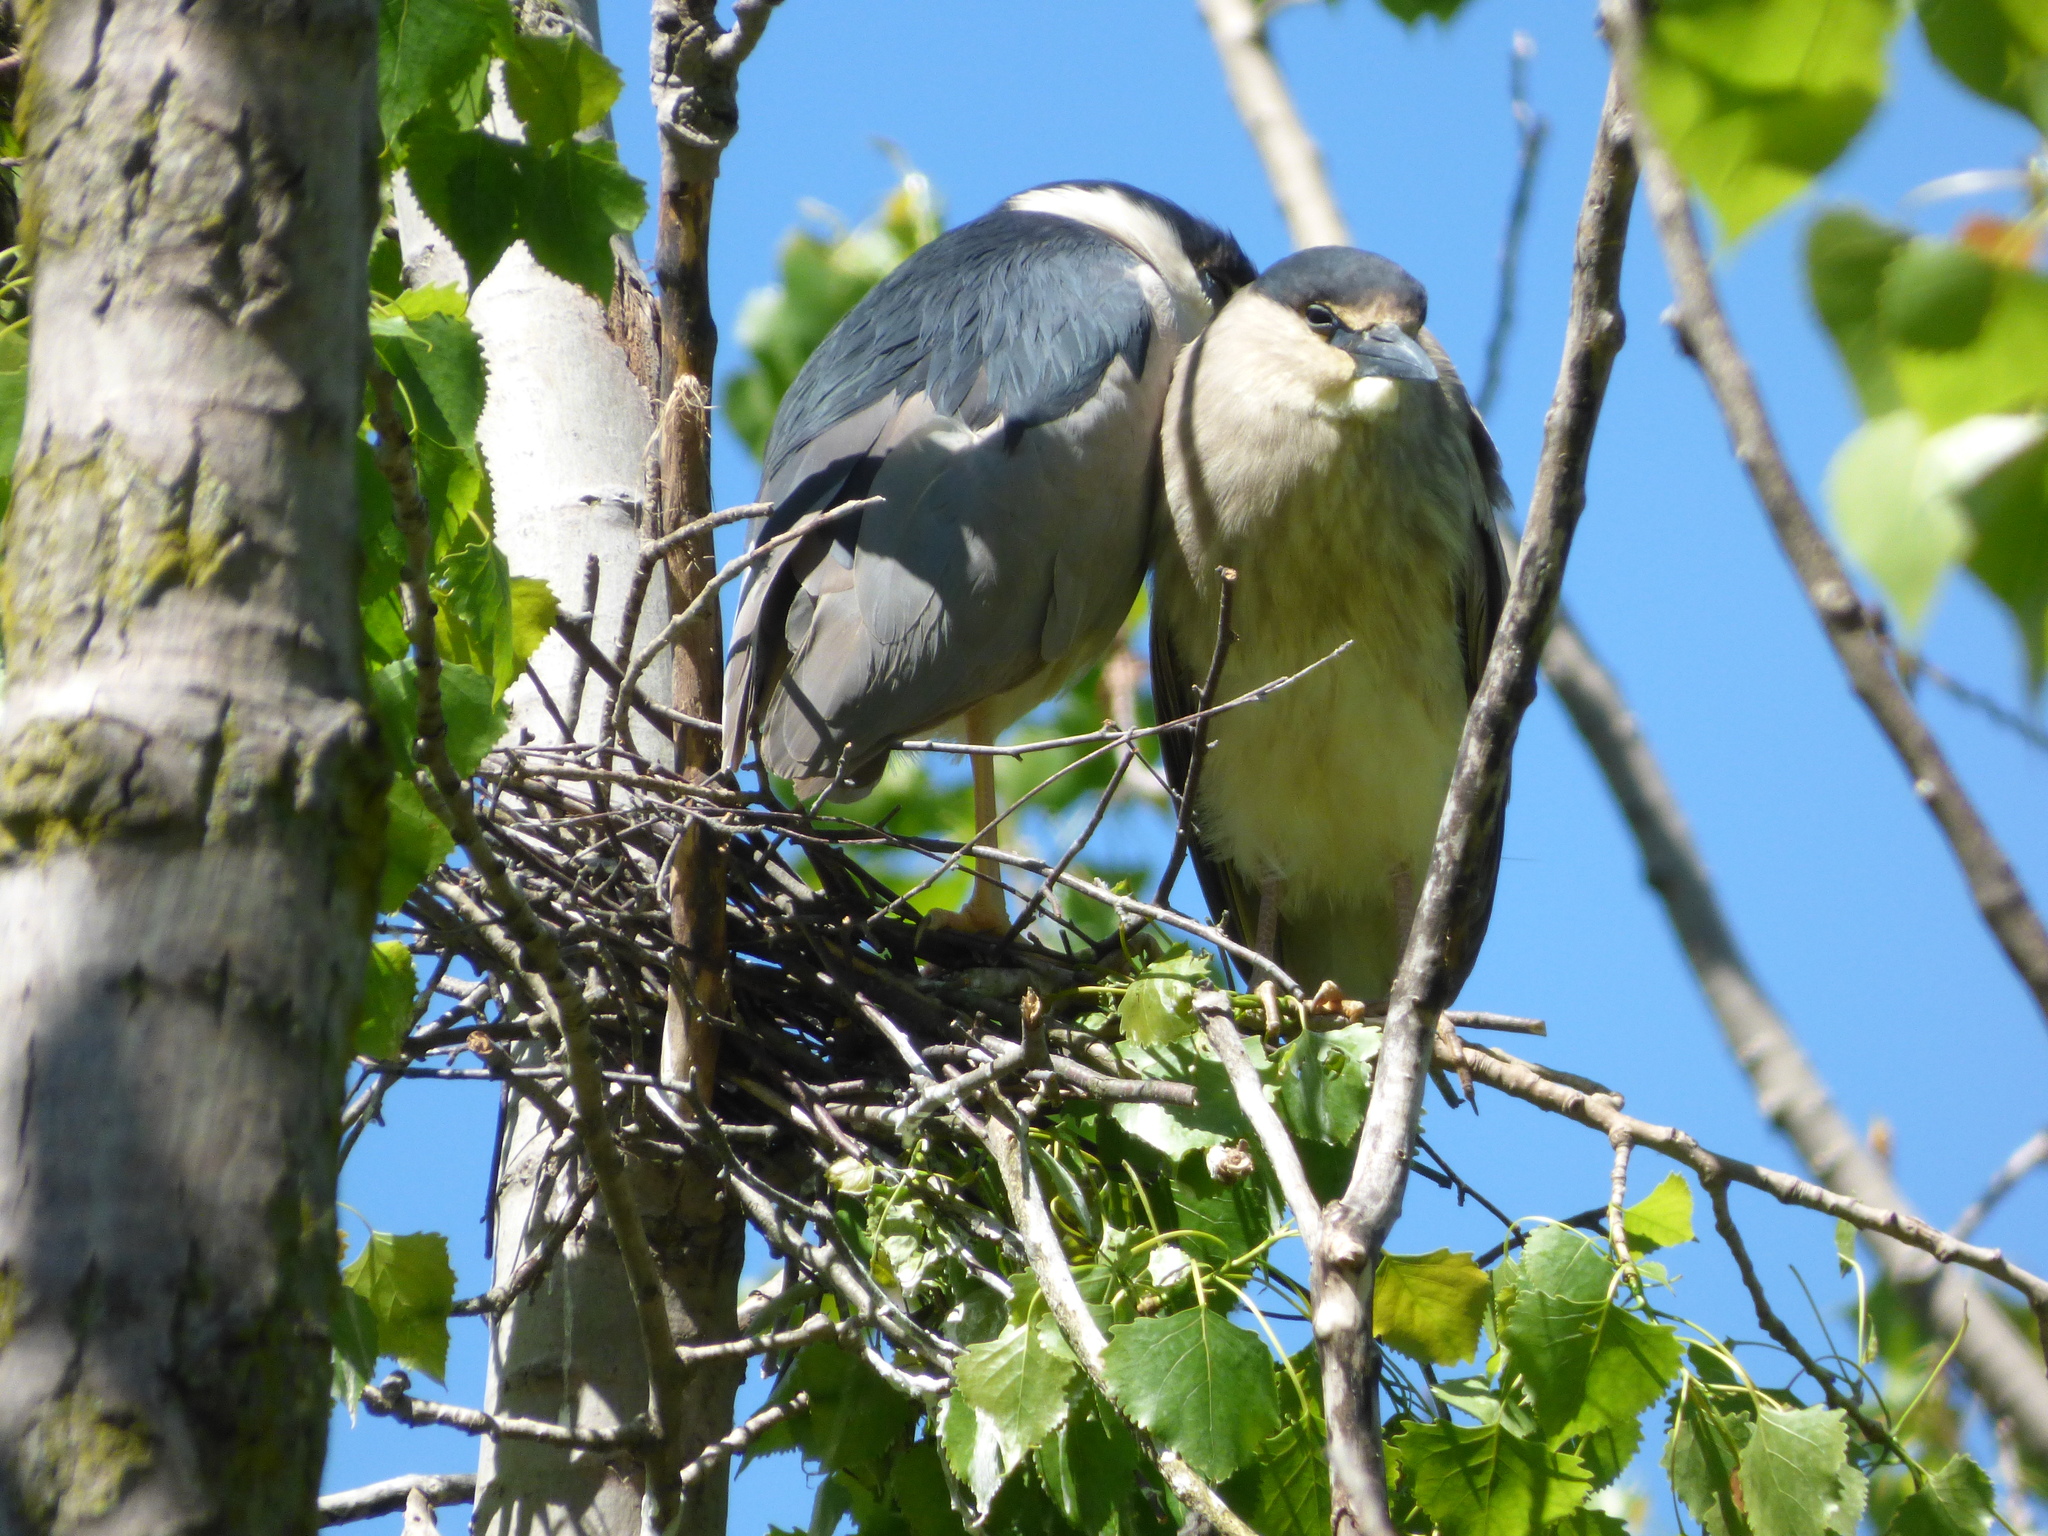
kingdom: Animalia
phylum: Chordata
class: Aves
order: Pelecaniformes
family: Ardeidae
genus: Nycticorax
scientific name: Nycticorax nycticorax
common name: Black-crowned night heron
